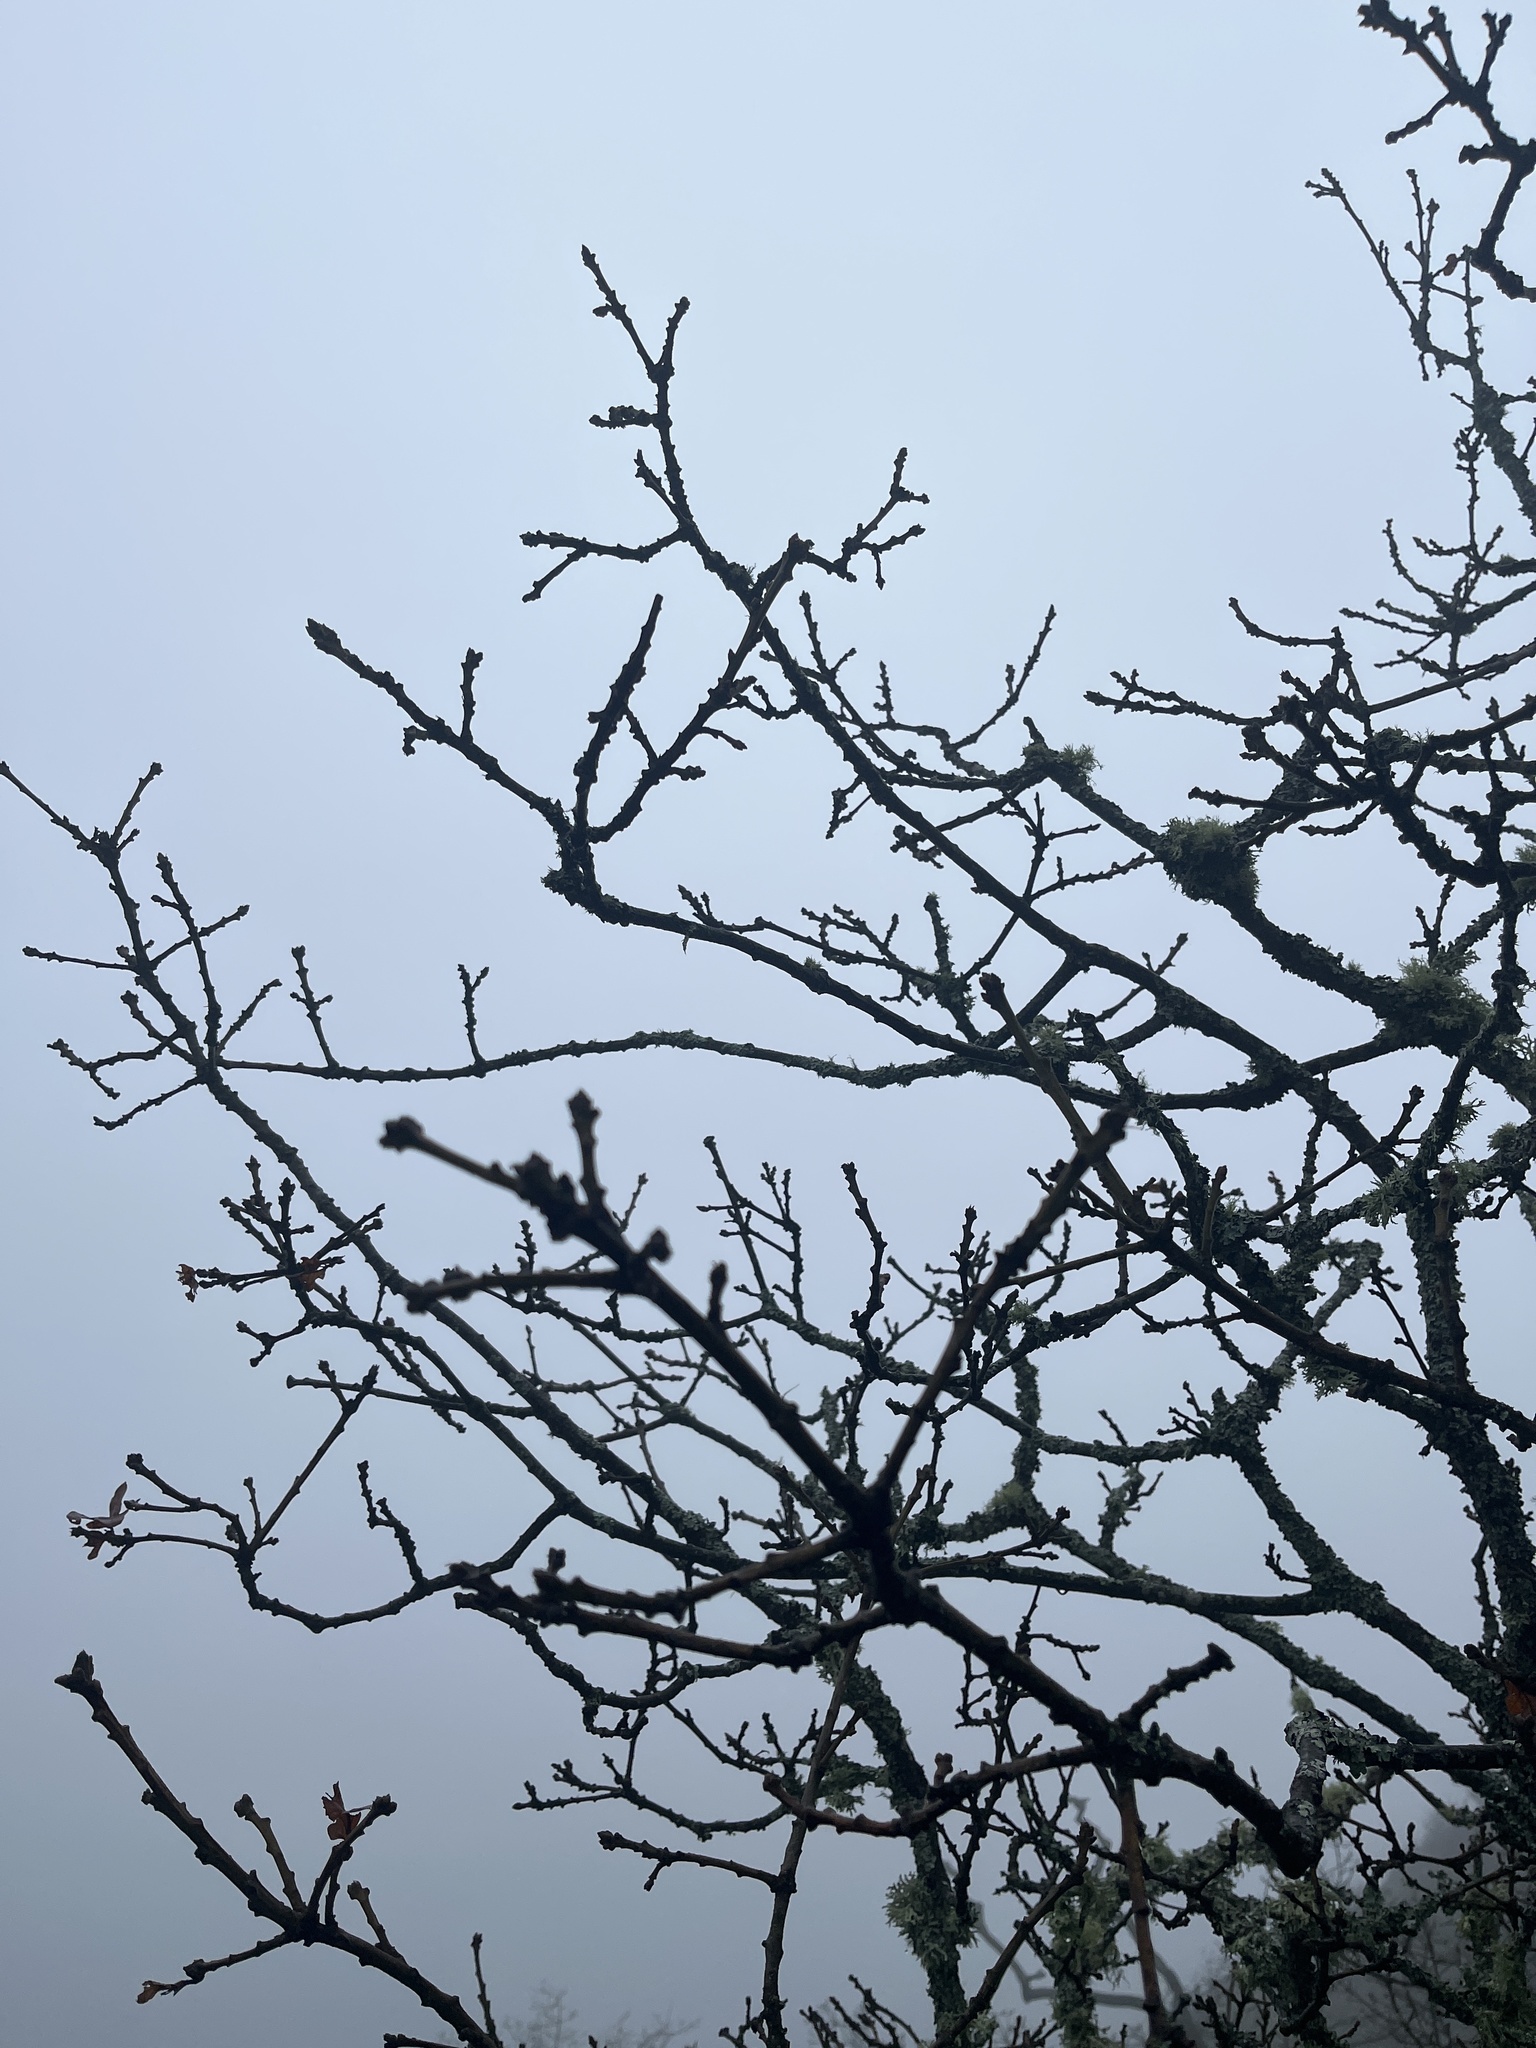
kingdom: Plantae
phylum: Tracheophyta
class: Magnoliopsida
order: Fagales
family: Fagaceae
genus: Quercus
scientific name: Quercus garryana
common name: Garry oak
